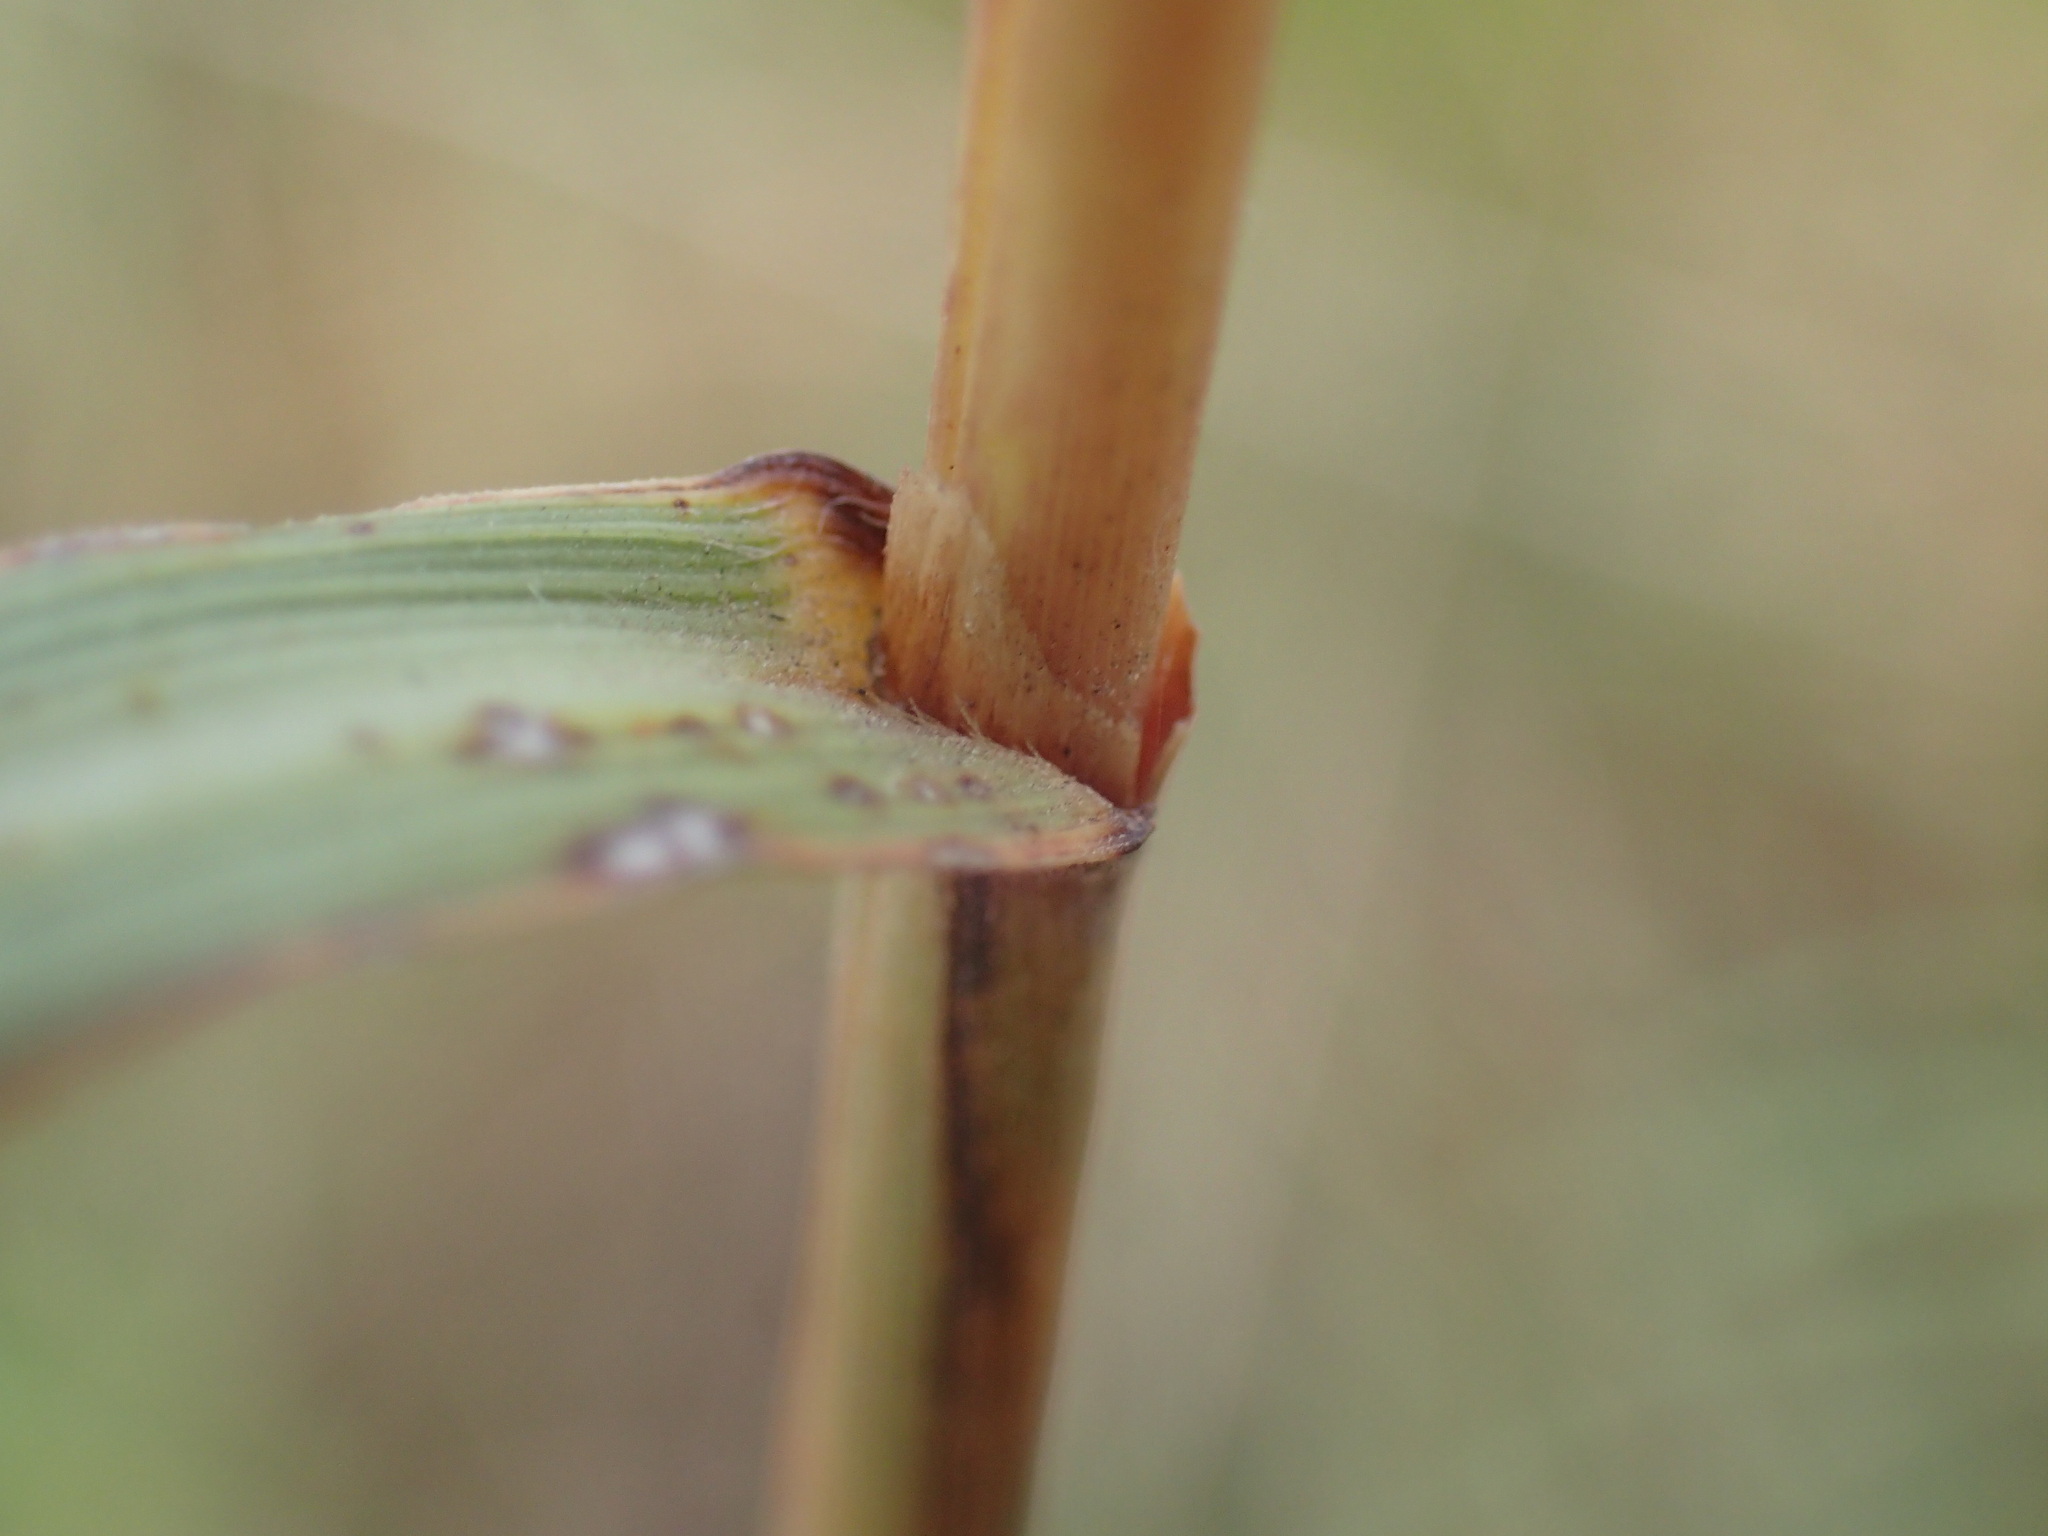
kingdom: Plantae
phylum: Tracheophyta
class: Liliopsida
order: Poales
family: Poaceae
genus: Cymbopogon
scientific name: Cymbopogon caesius
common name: Kachi grass
